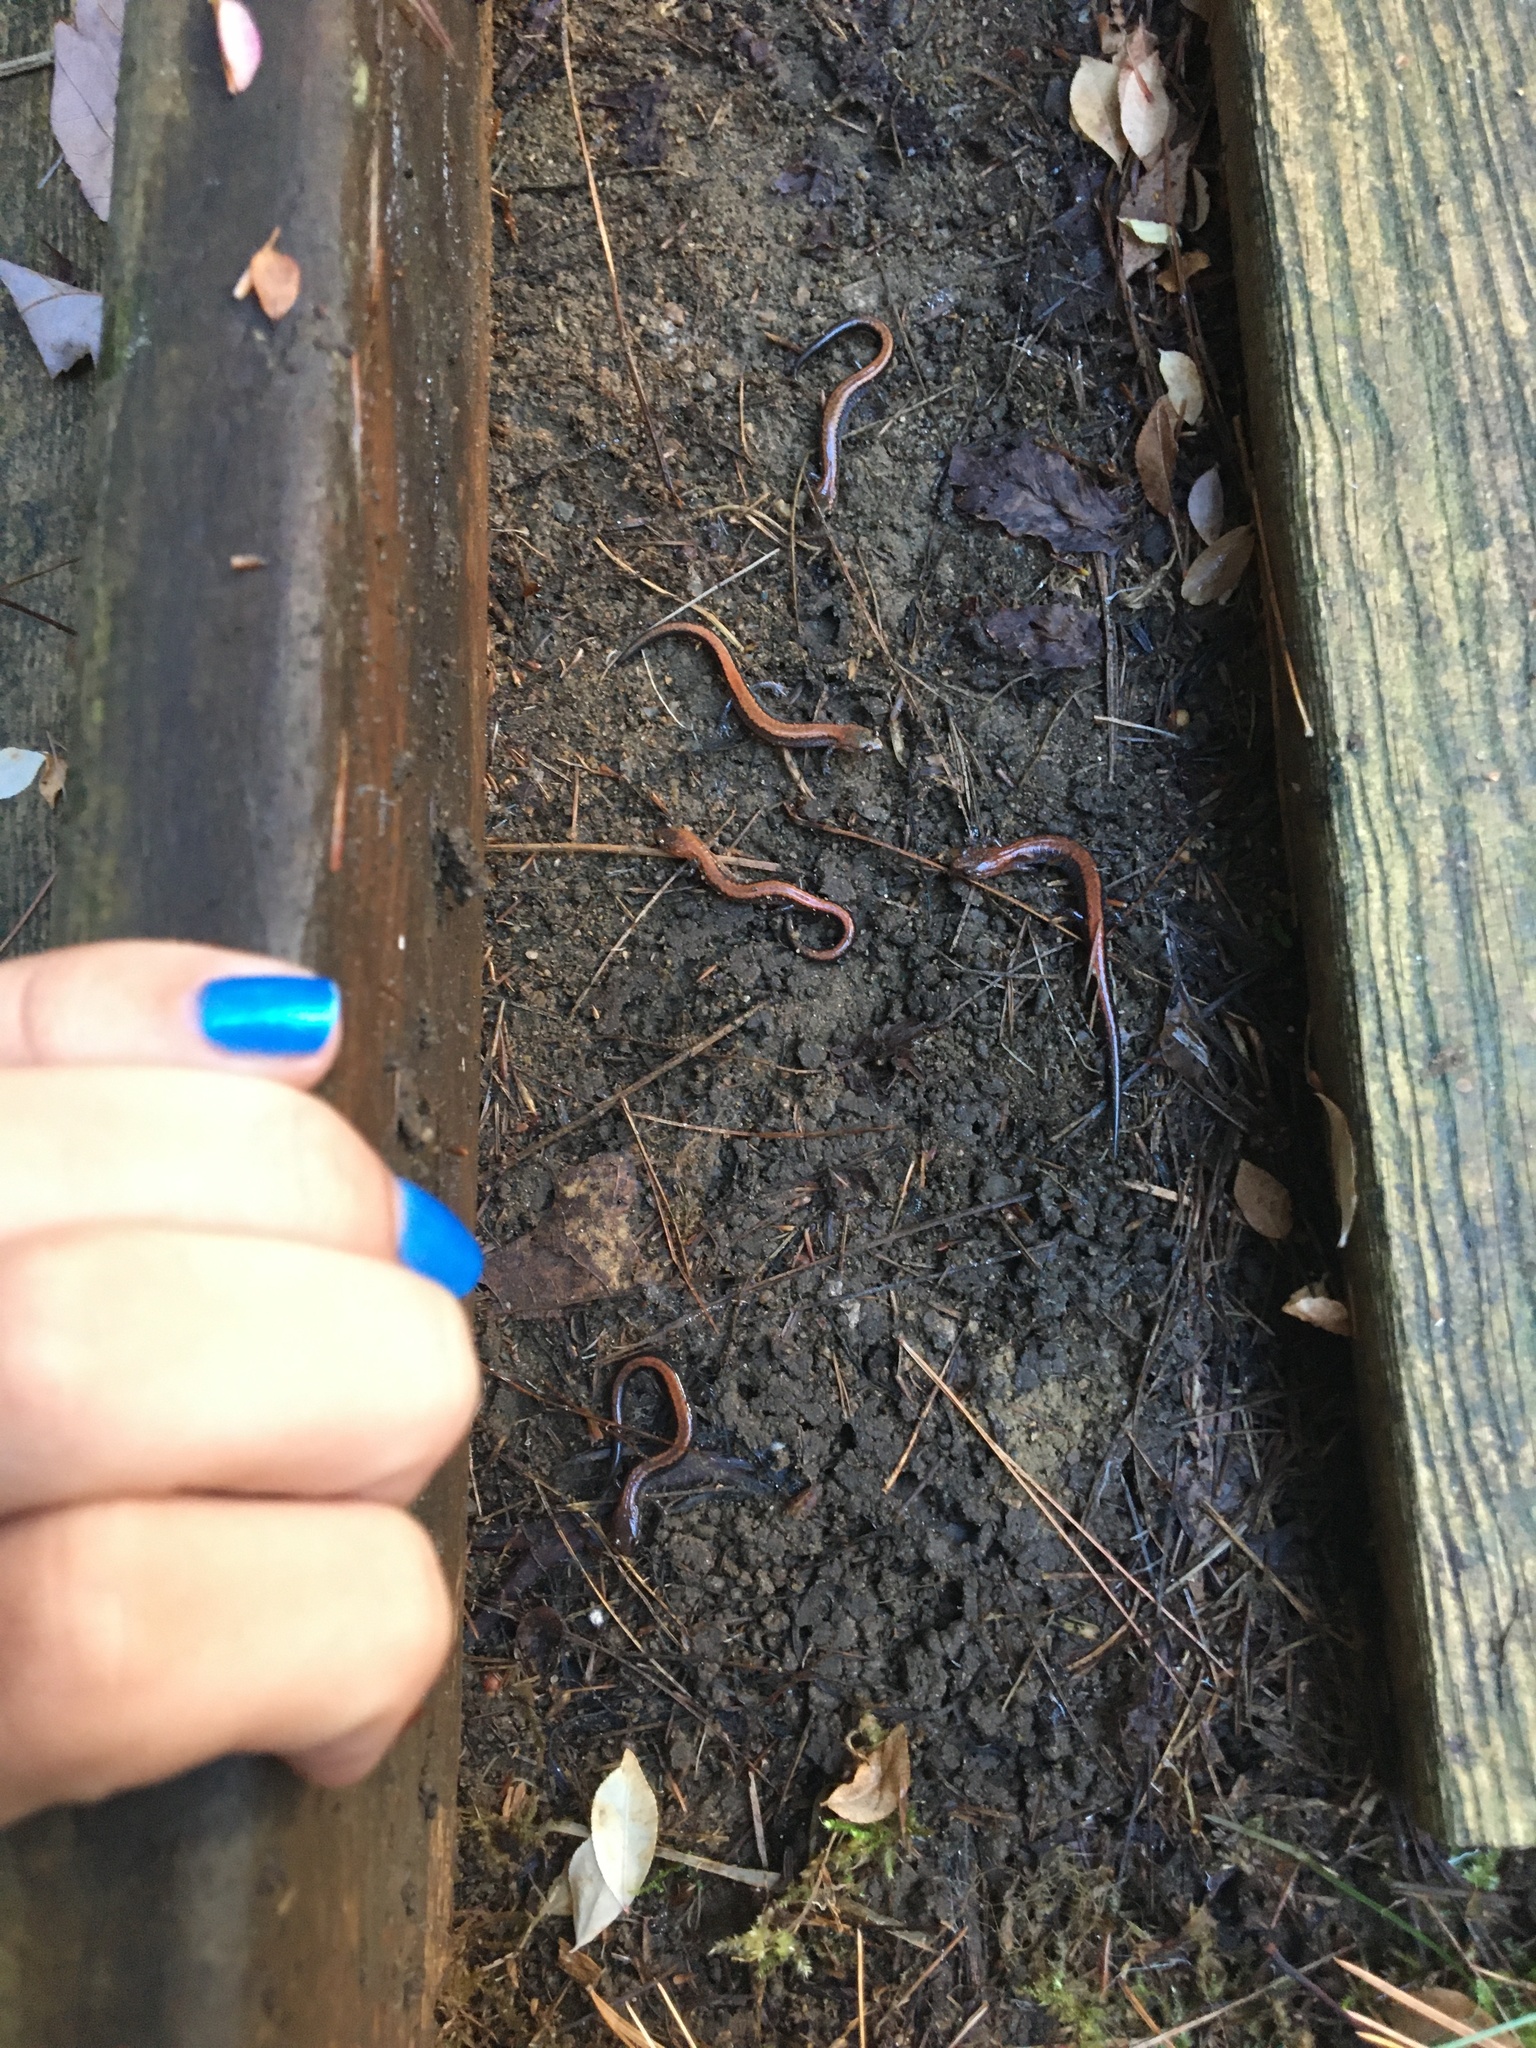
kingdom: Animalia
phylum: Chordata
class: Amphibia
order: Caudata
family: Plethodontidae
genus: Plethodon
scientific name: Plethodon cinereus
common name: Redback salamander
